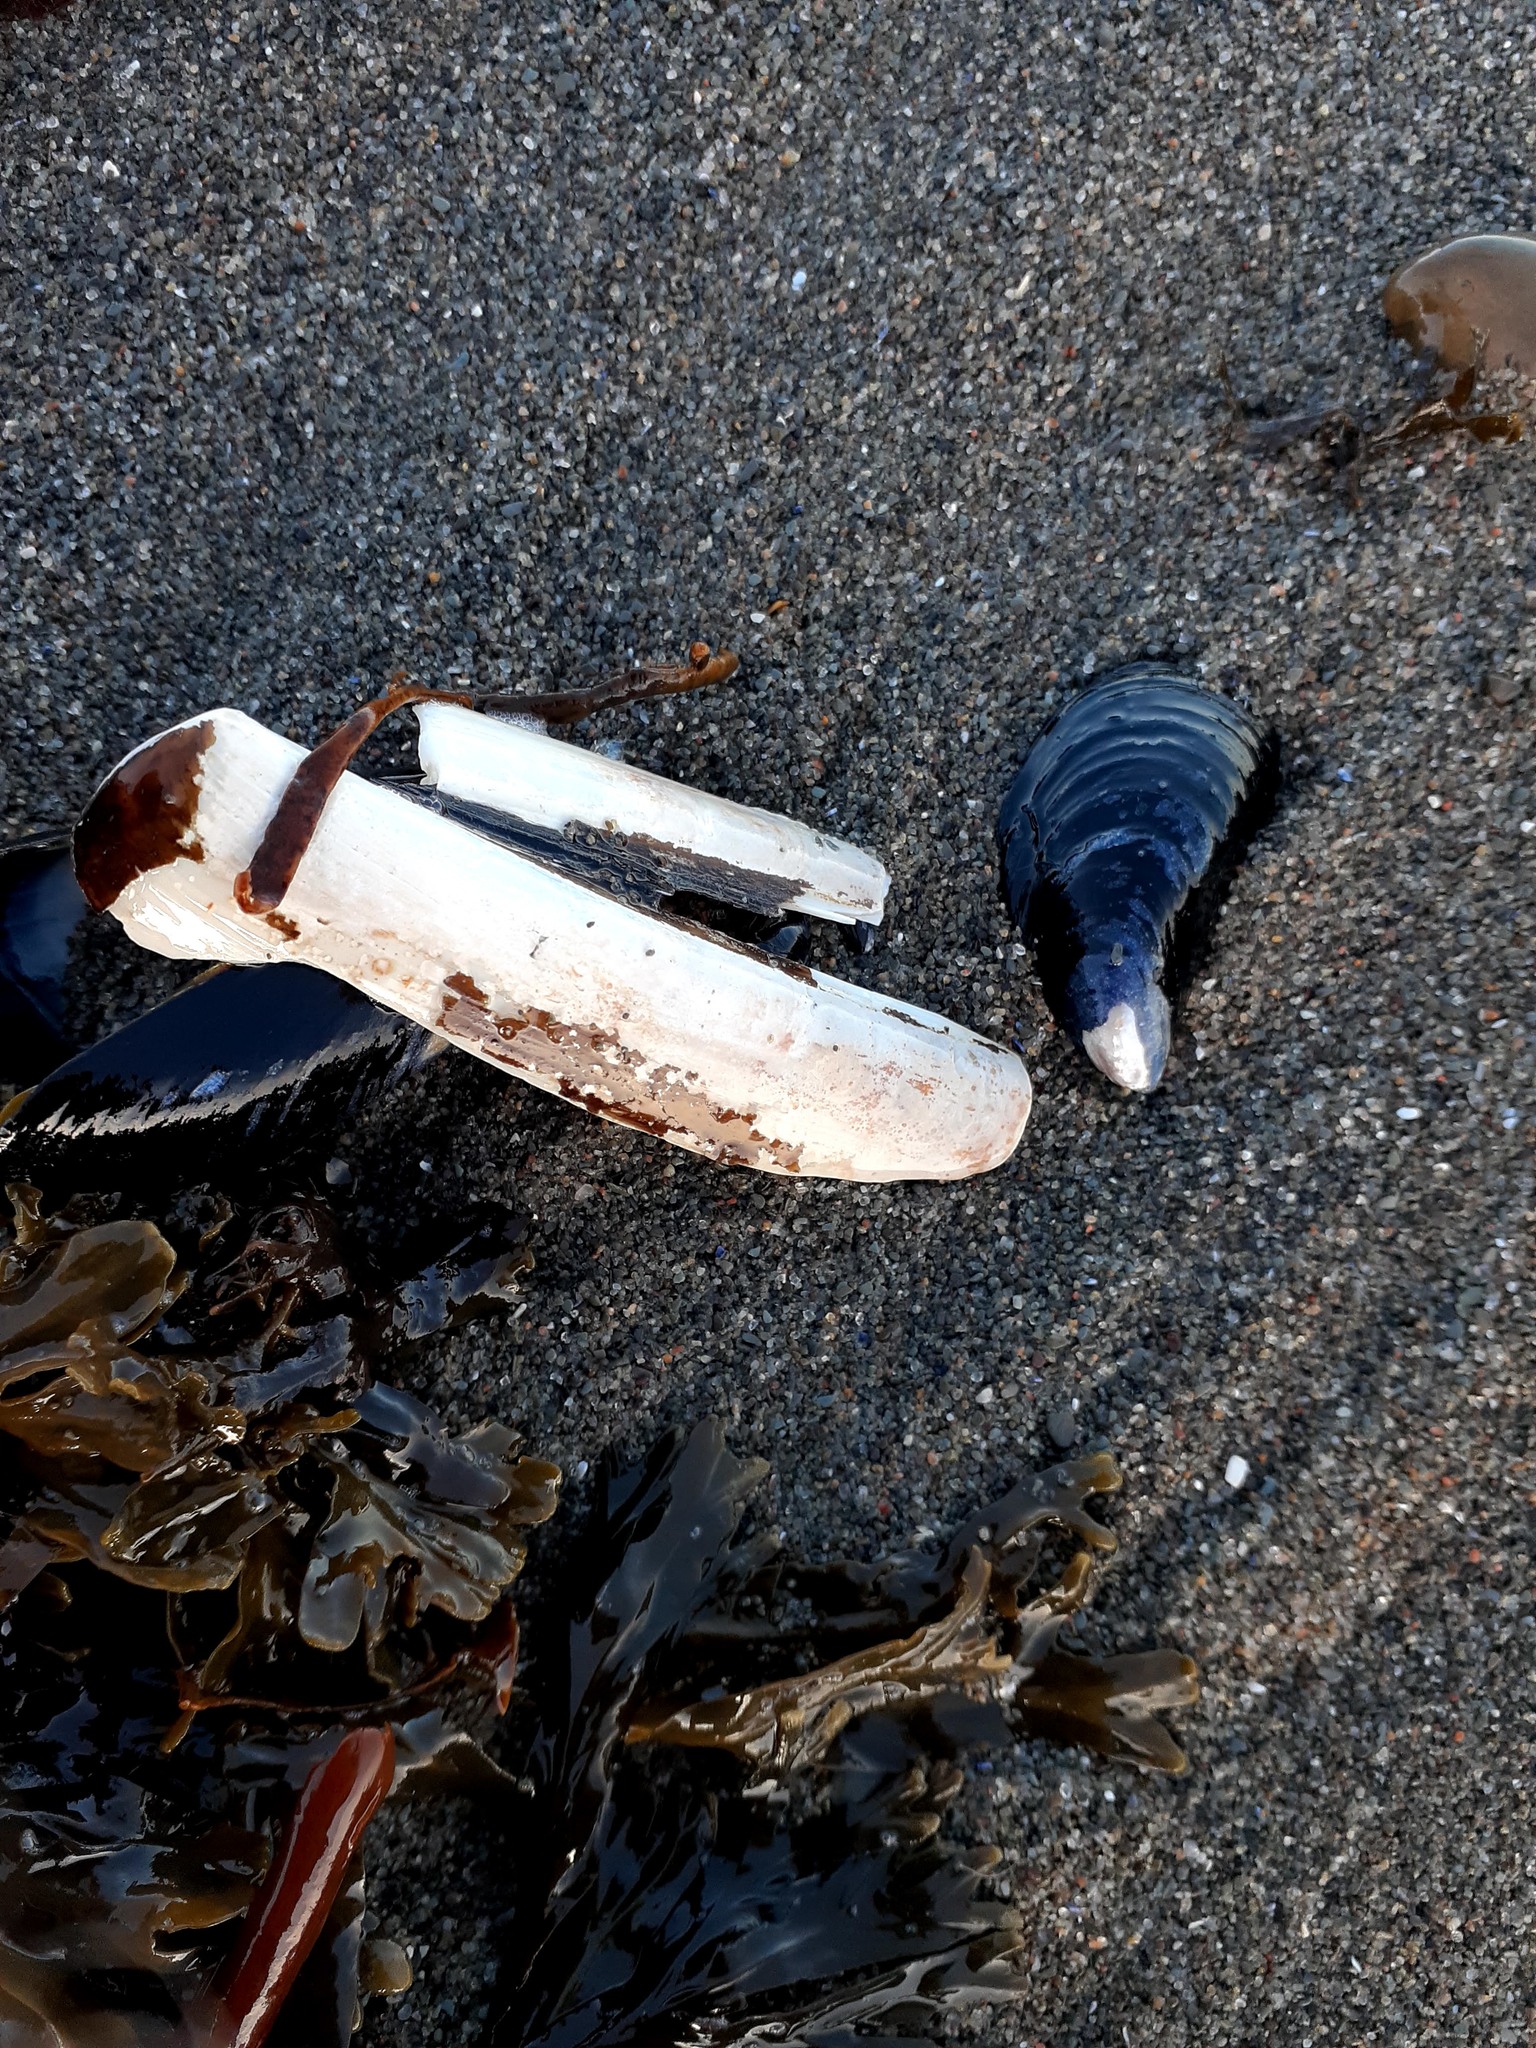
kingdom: Animalia
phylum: Mollusca
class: Bivalvia
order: Adapedonta
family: Pharidae
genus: Ensis
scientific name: Ensis leei
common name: American jack knife clam
